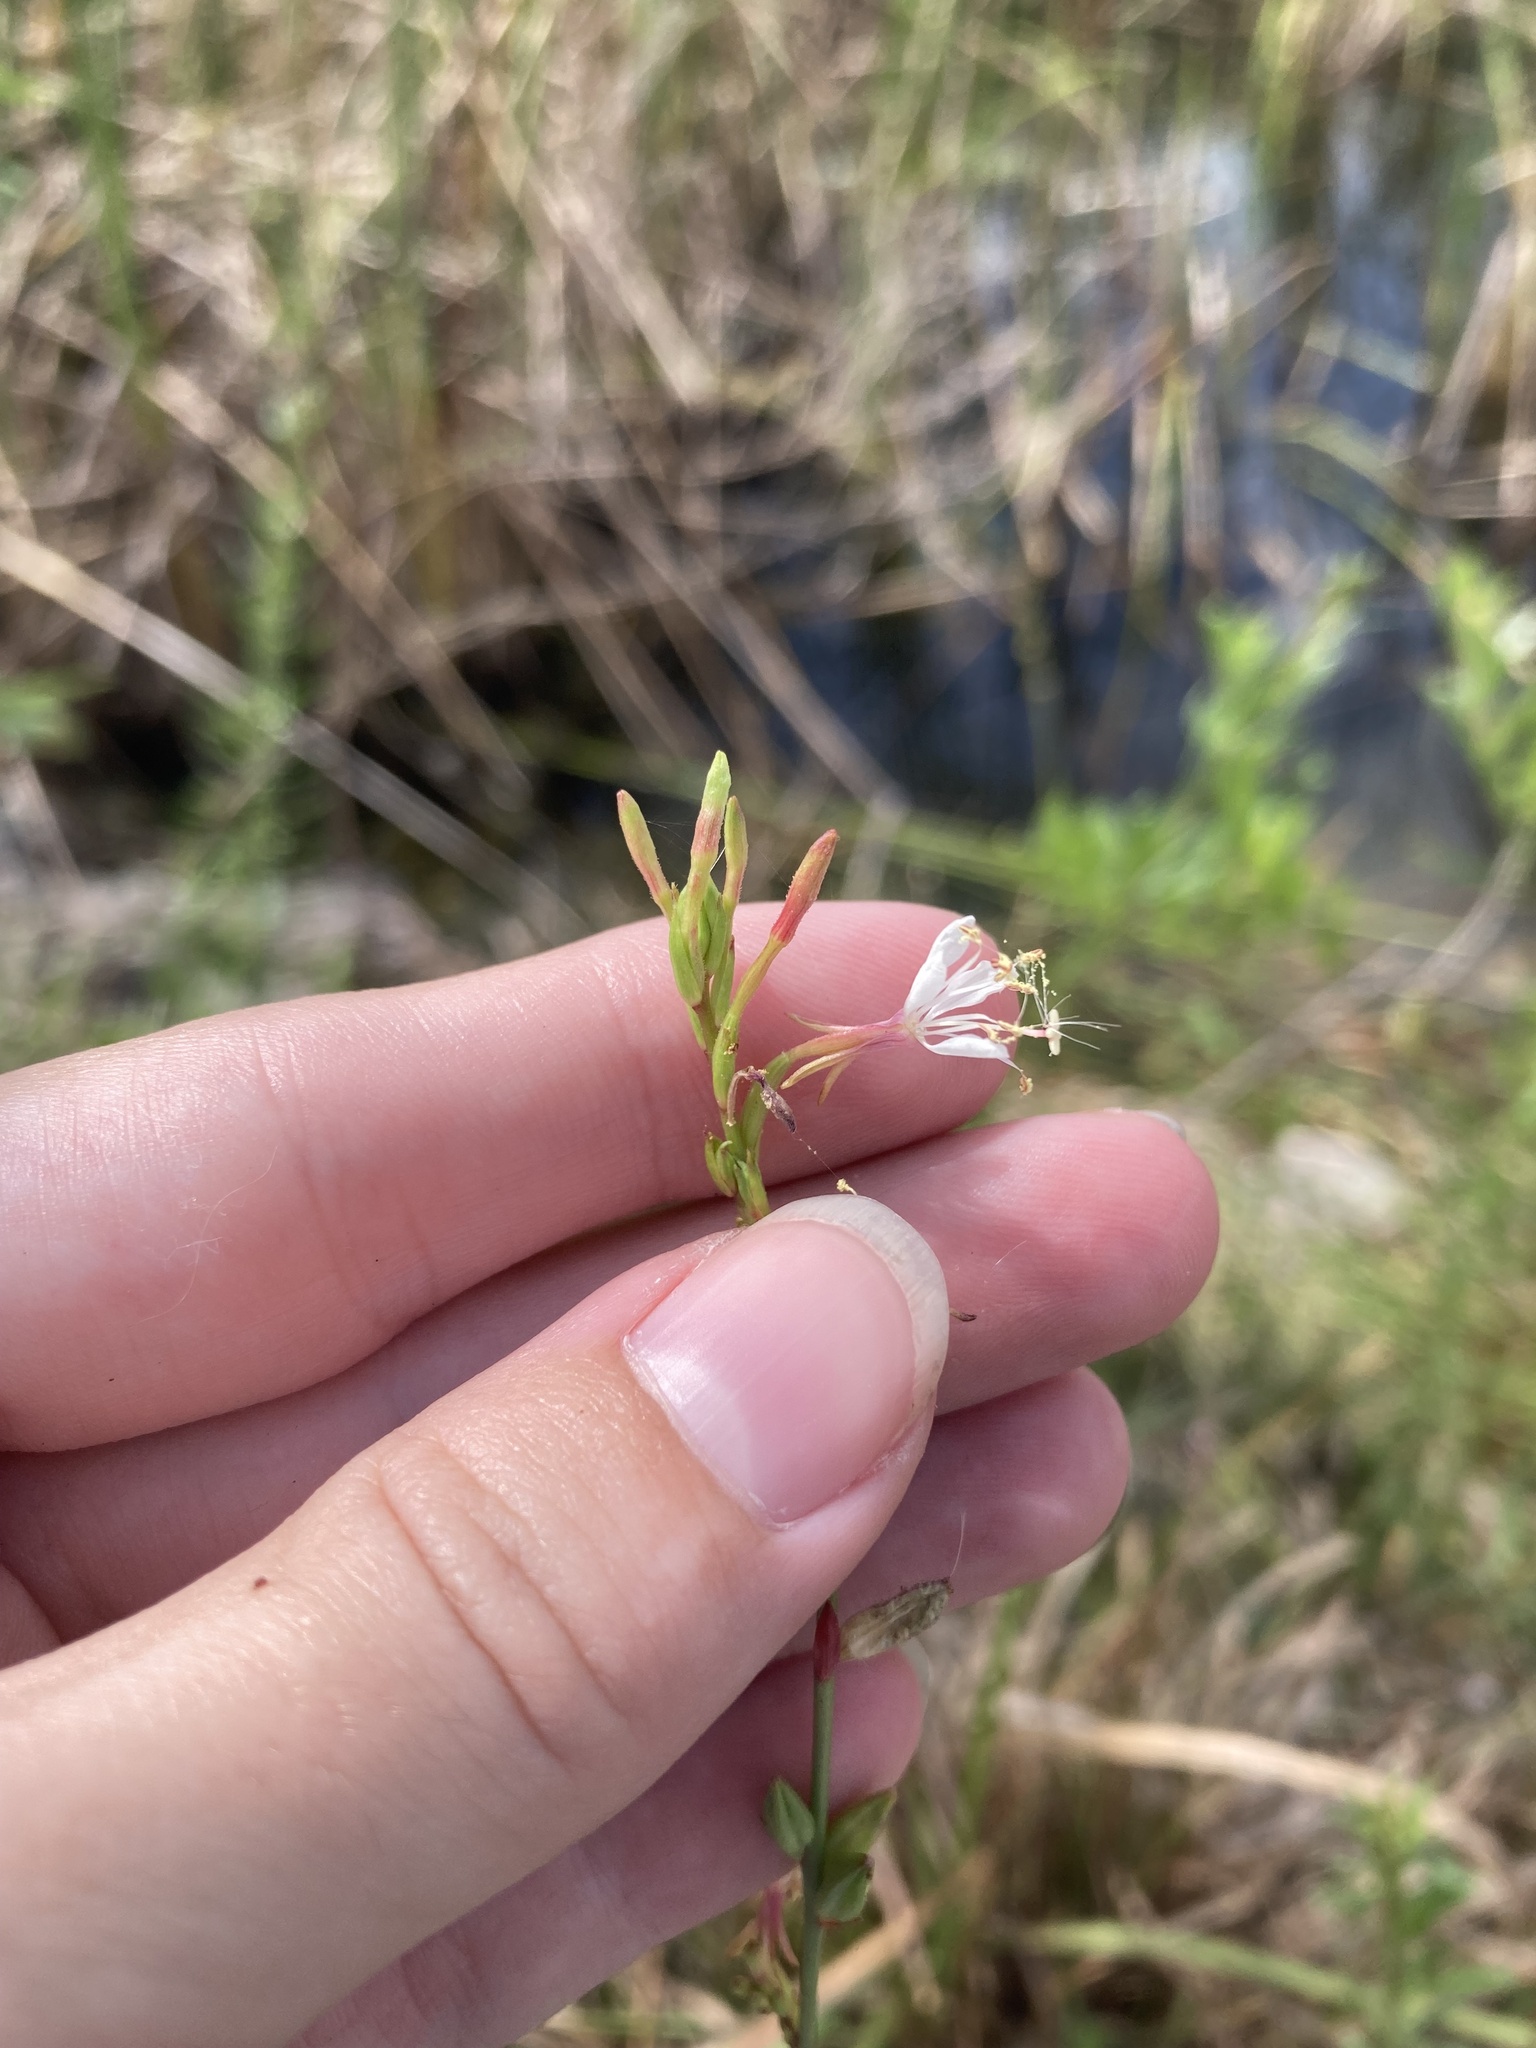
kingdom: Plantae
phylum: Tracheophyta
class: Magnoliopsida
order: Myrtales
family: Onagraceae
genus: Oenothera
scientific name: Oenothera simulans
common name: Southern beeblossom
